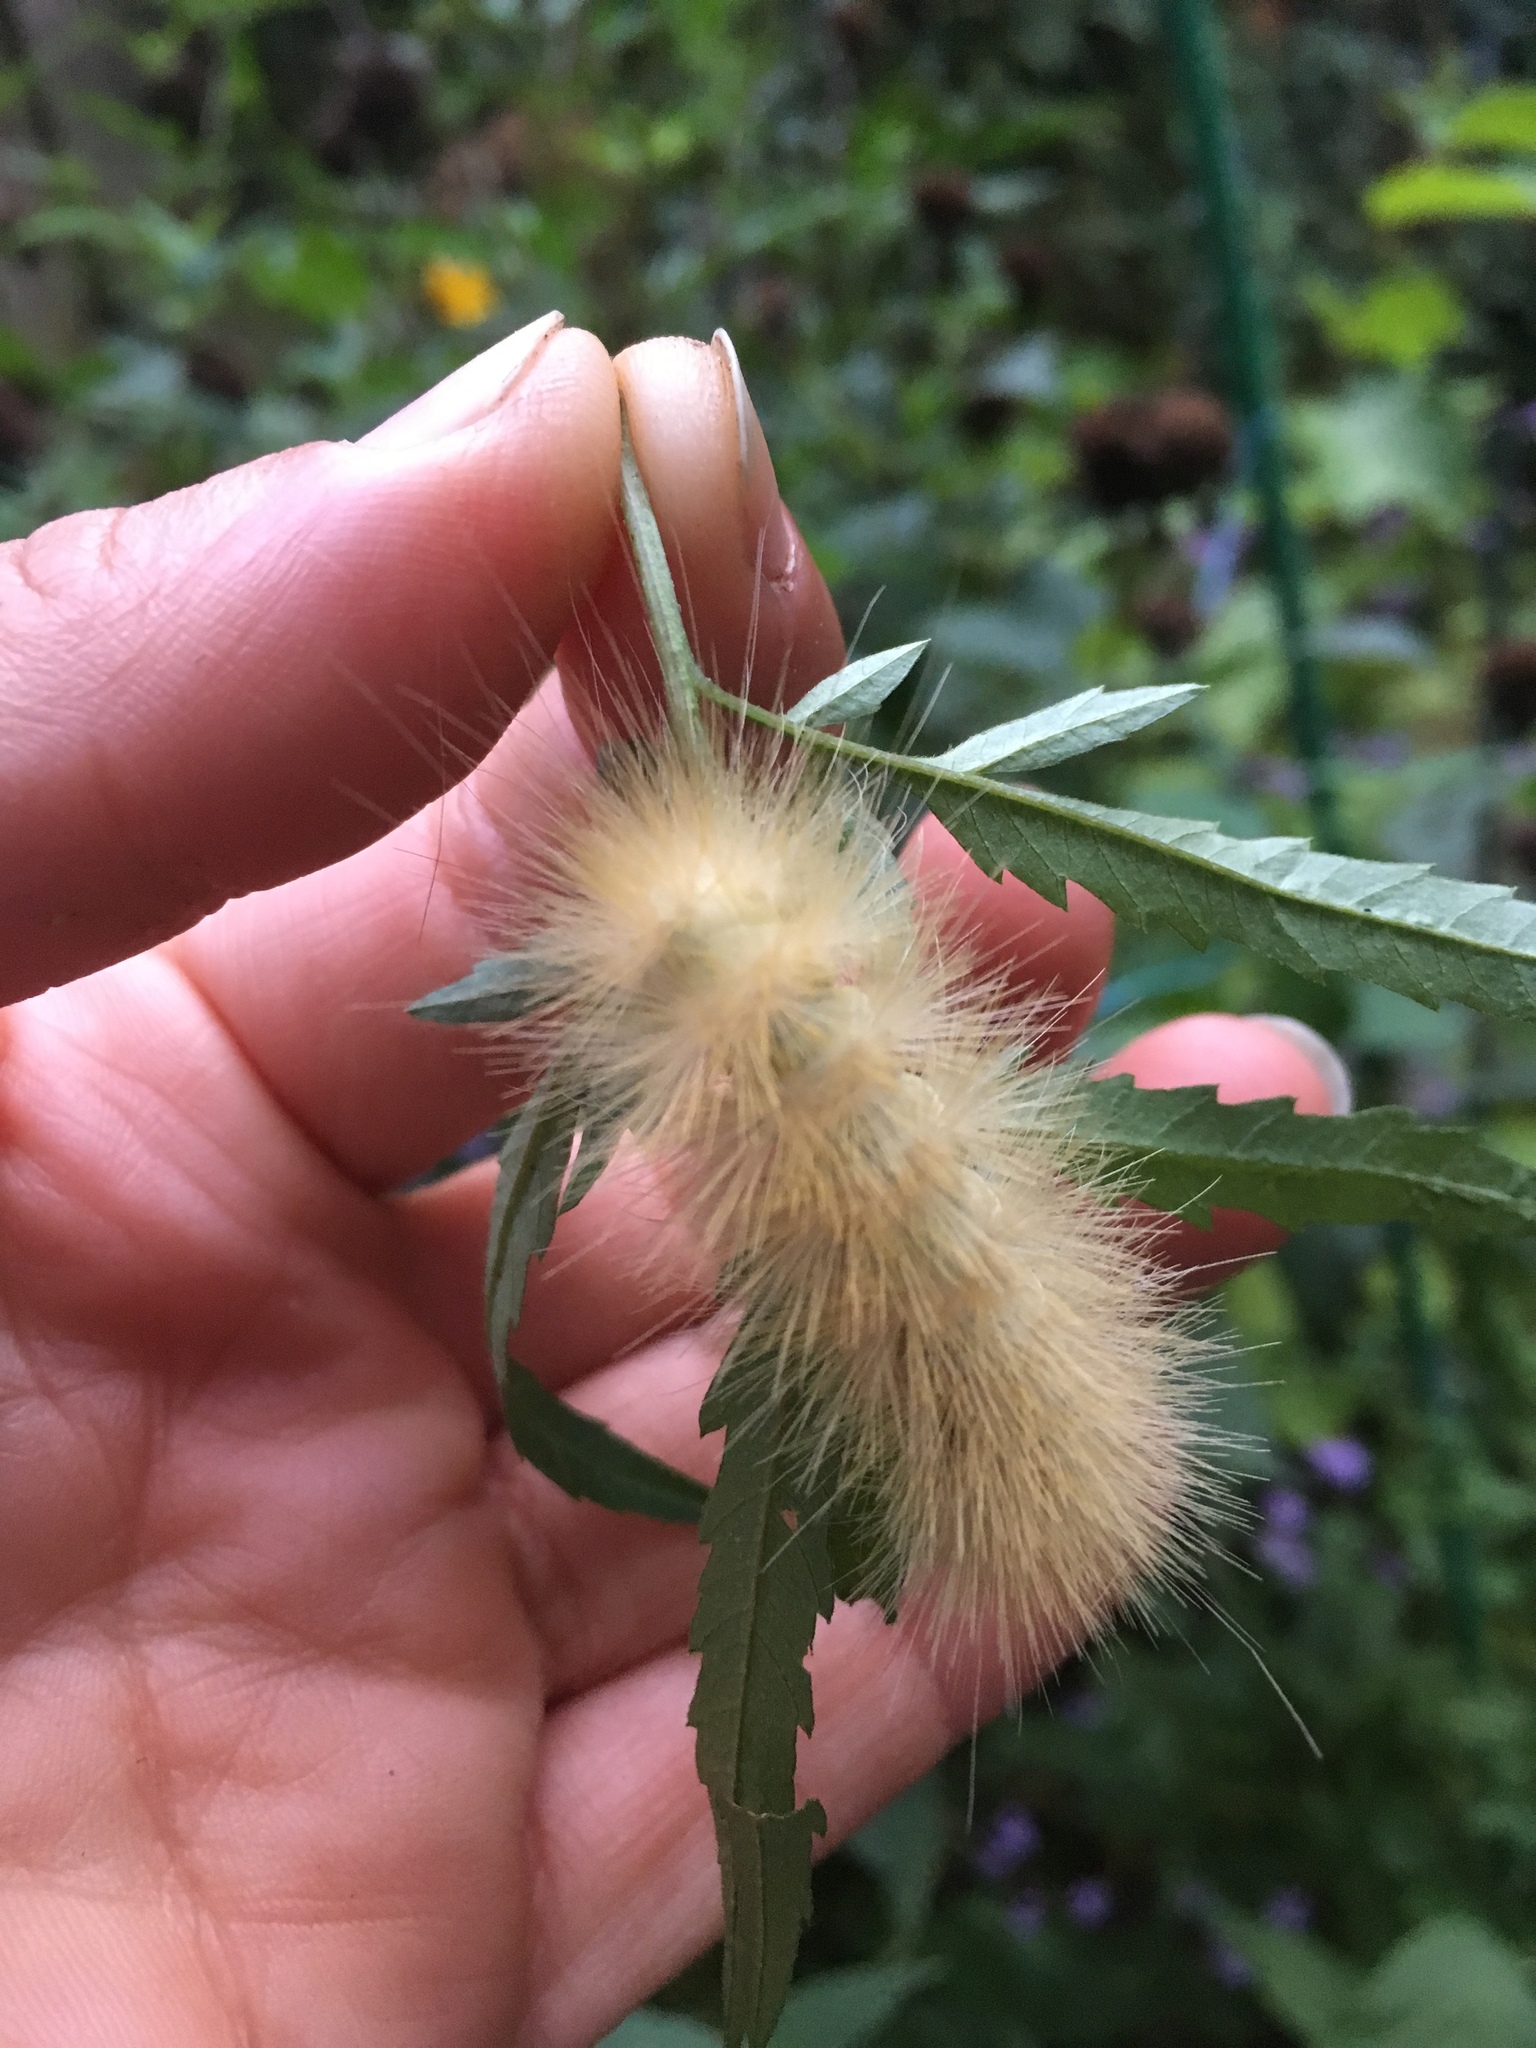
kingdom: Animalia
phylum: Arthropoda
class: Insecta
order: Lepidoptera
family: Erebidae
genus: Spilosoma
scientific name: Spilosoma virginica
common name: Virginia tiger moth
